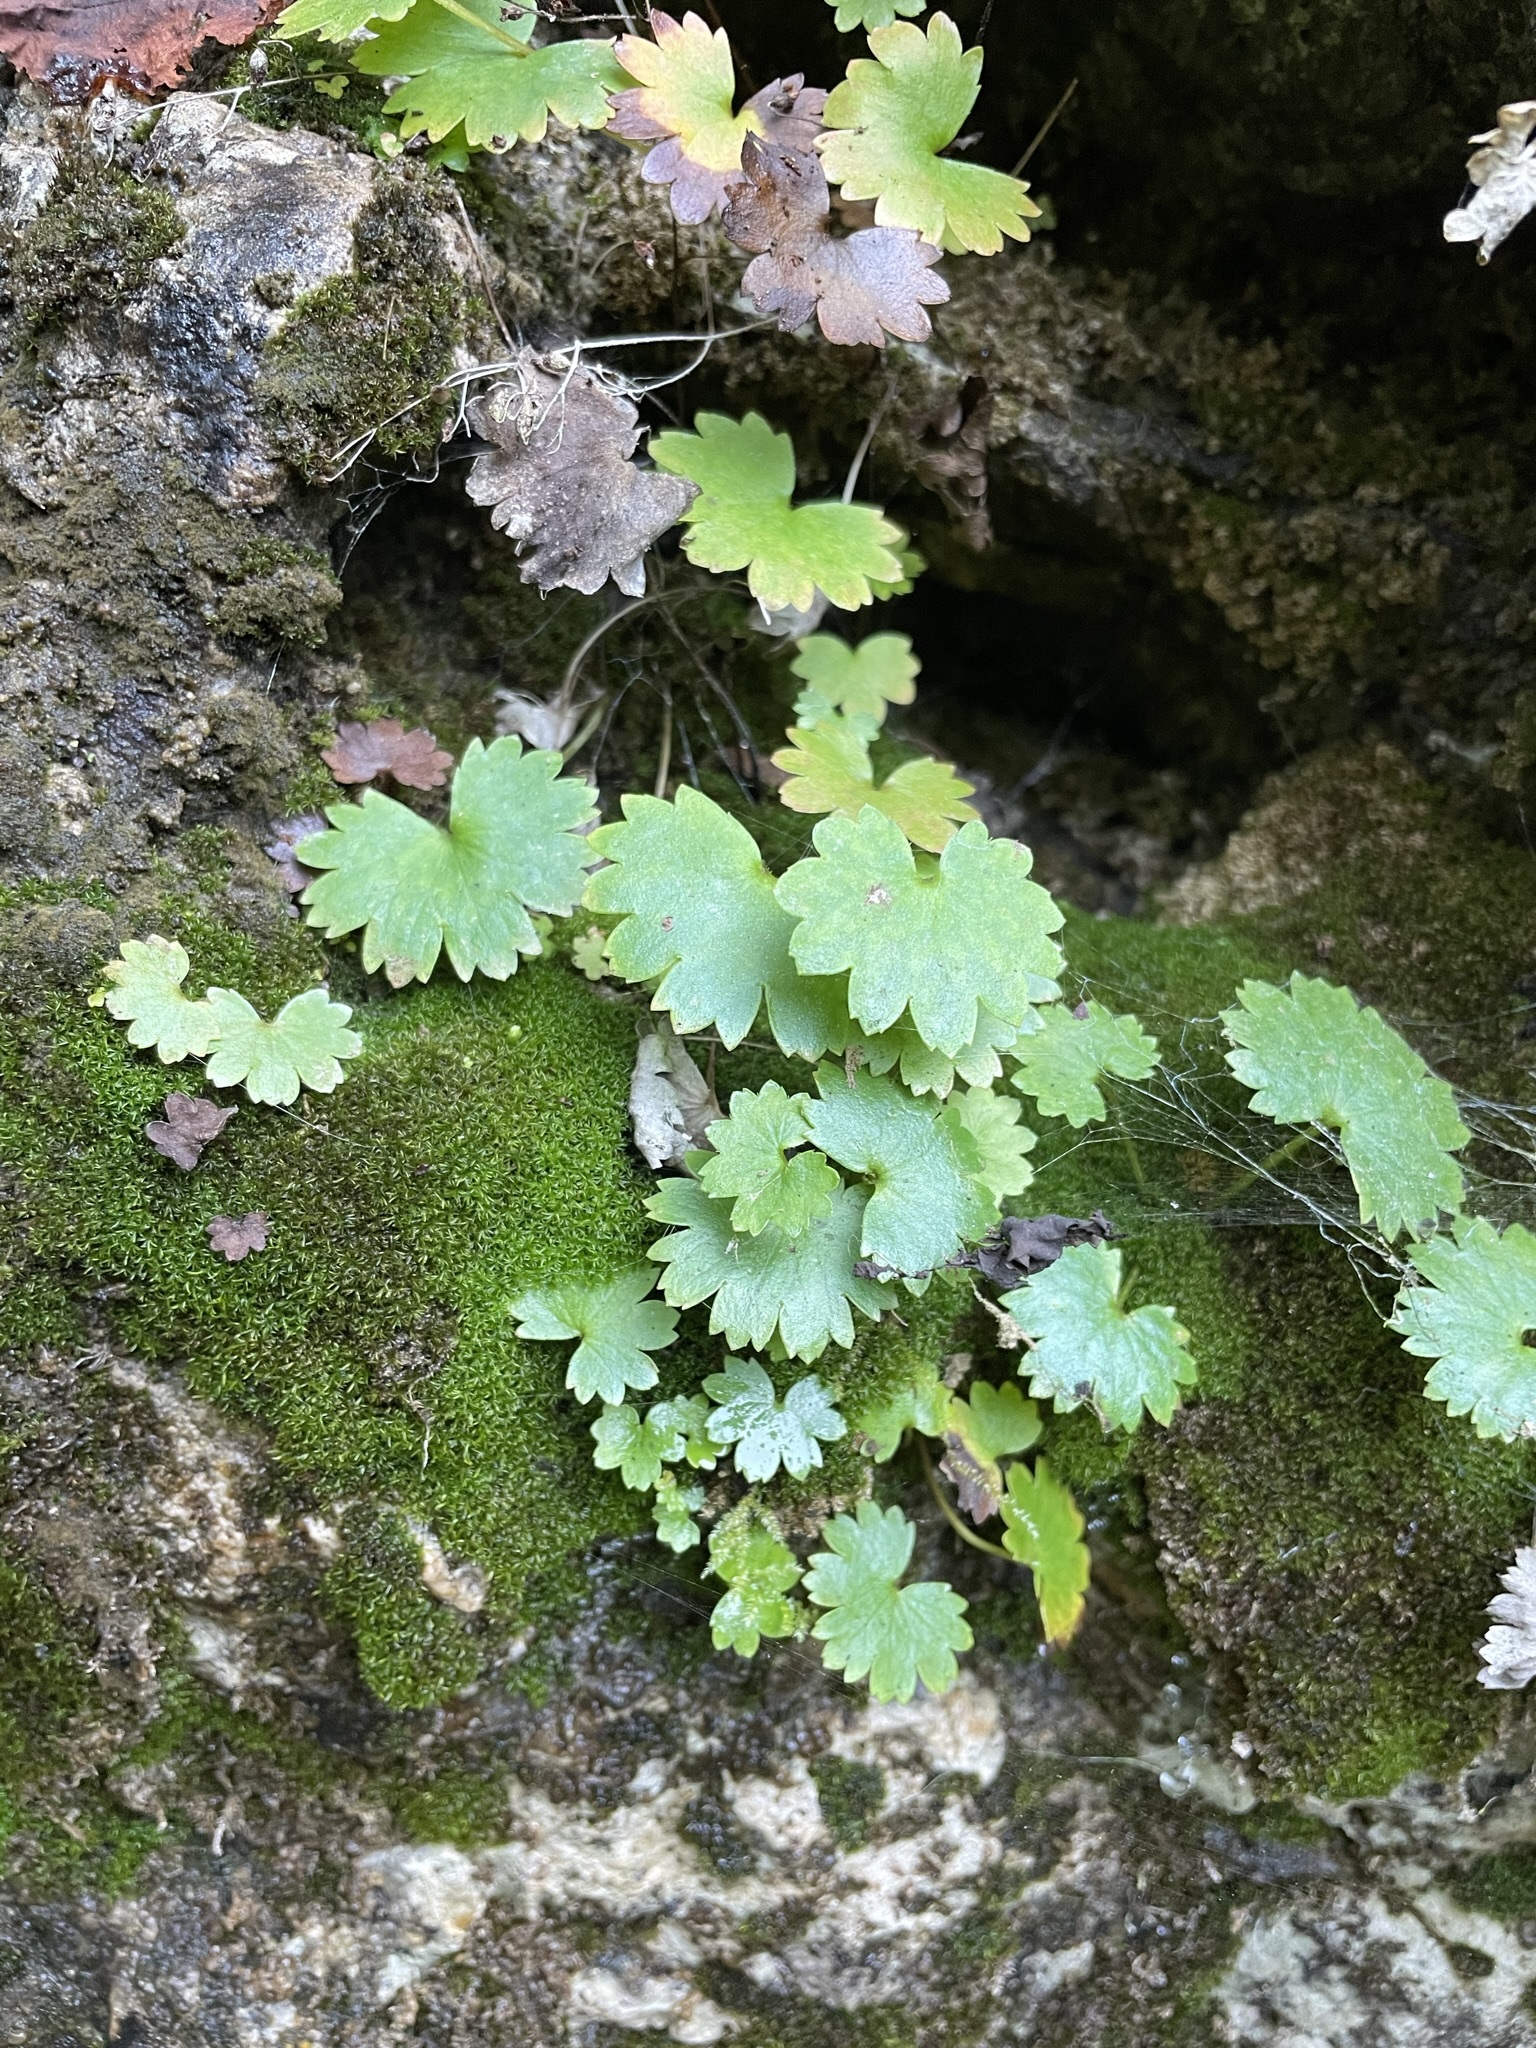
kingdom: Plantae
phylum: Tracheophyta
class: Magnoliopsida
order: Saxifragales
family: Saxifragaceae
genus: Sullivantia
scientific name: Sullivantia sullivantii
